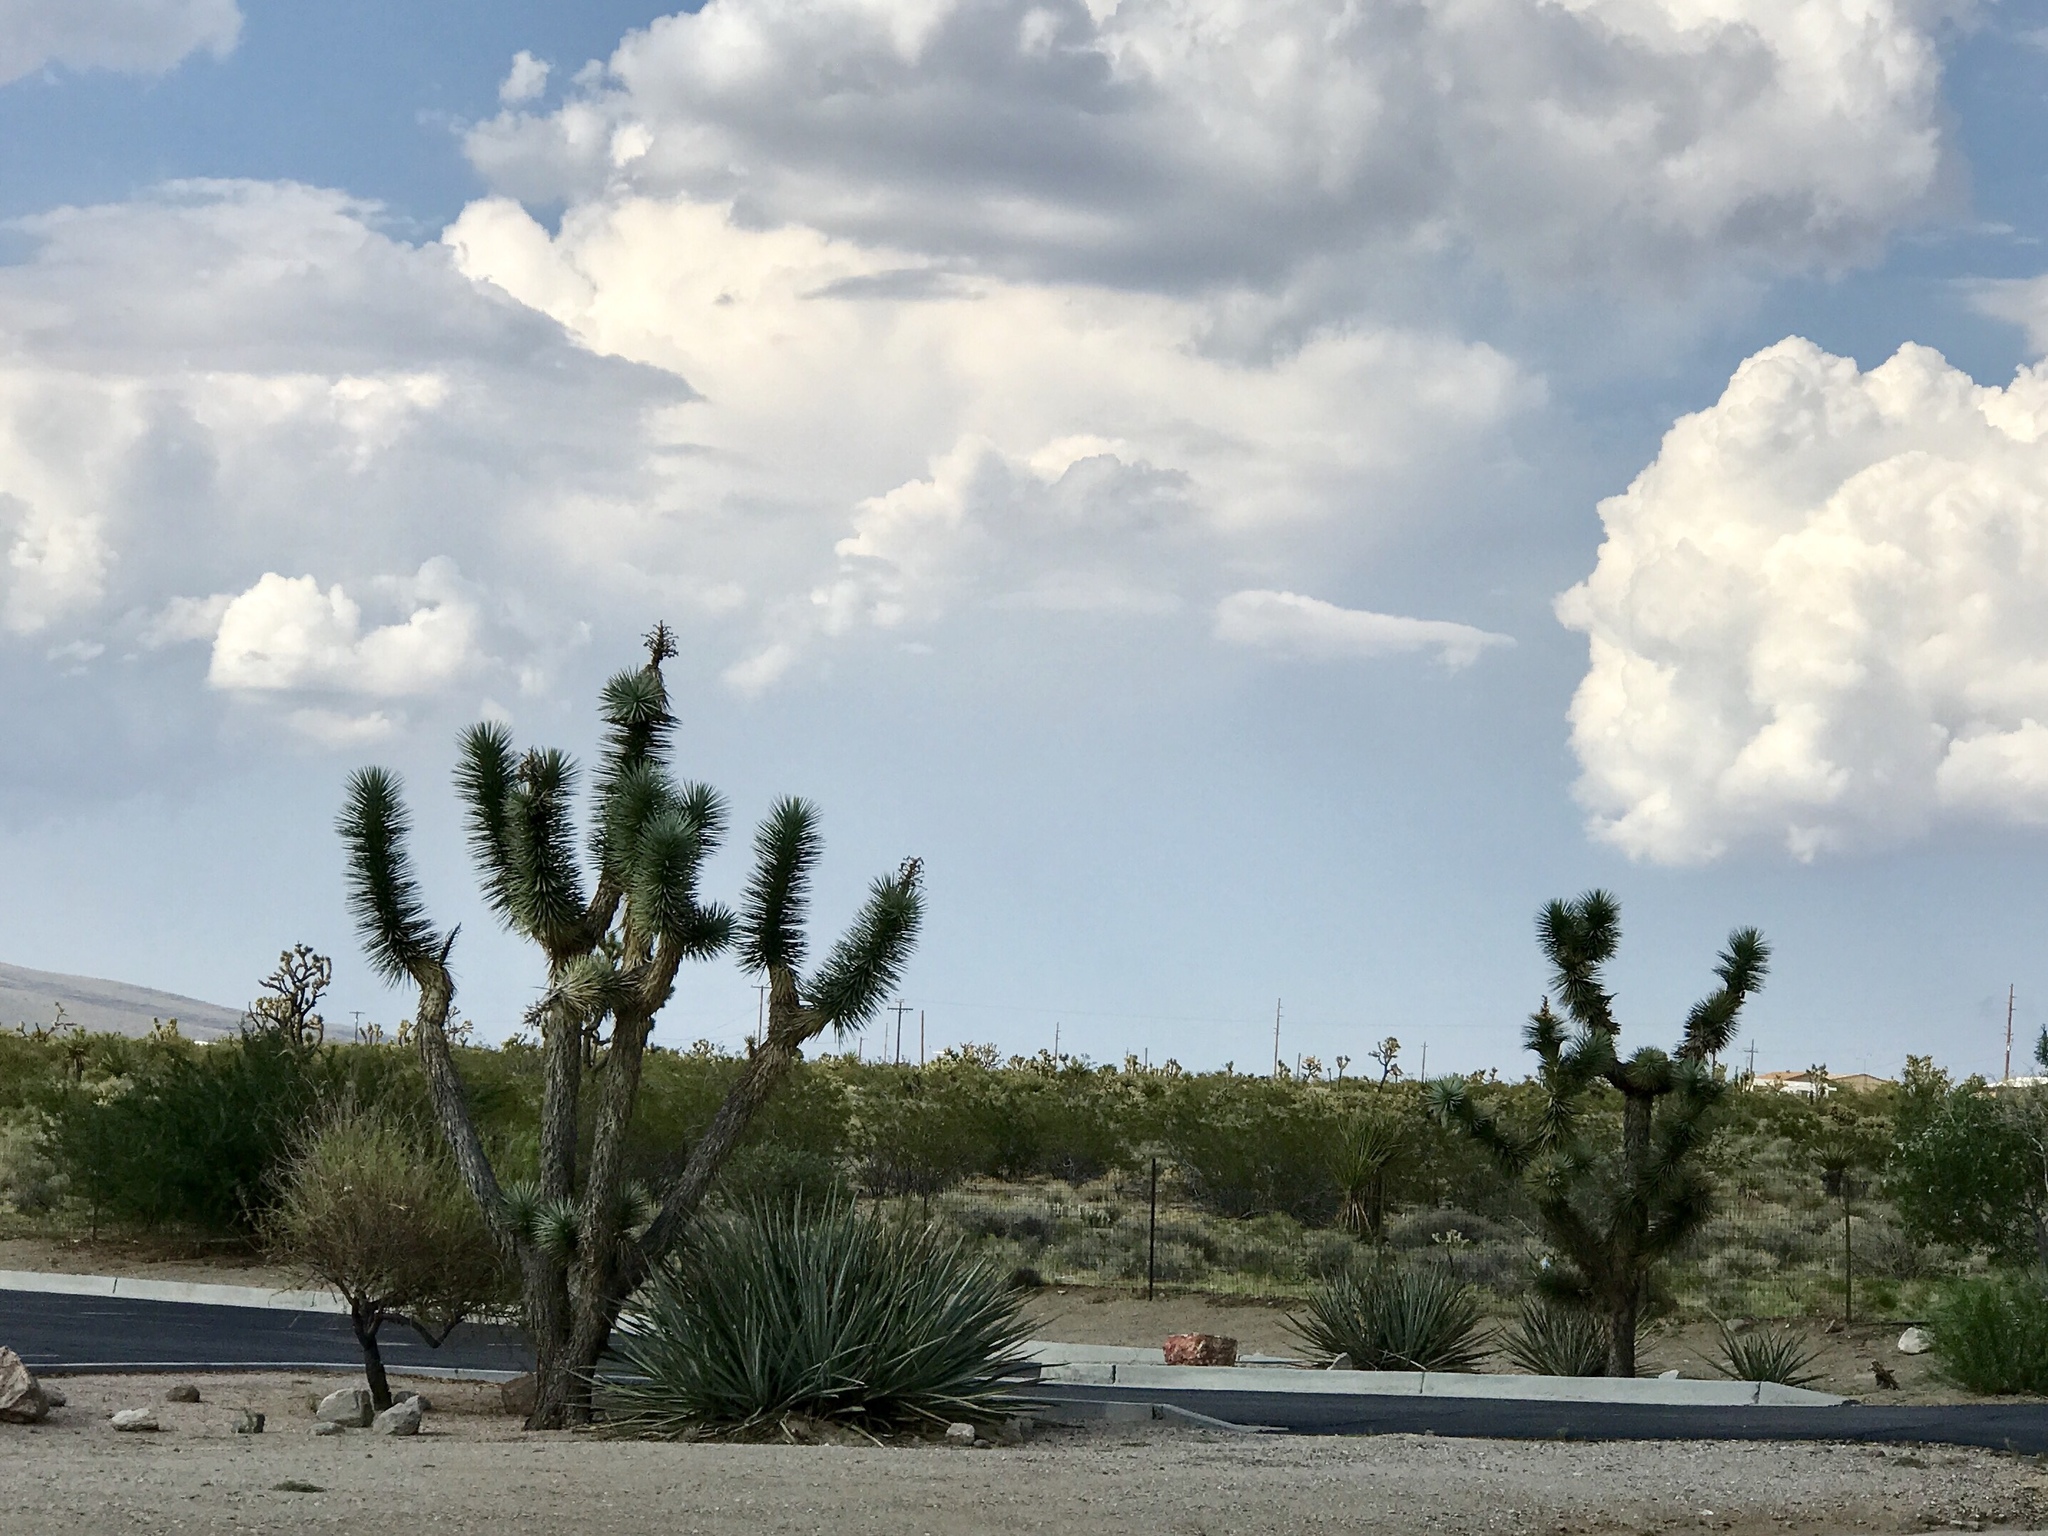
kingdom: Plantae
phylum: Tracheophyta
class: Liliopsida
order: Asparagales
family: Asparagaceae
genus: Yucca
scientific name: Yucca brevifolia
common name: Joshua tree
